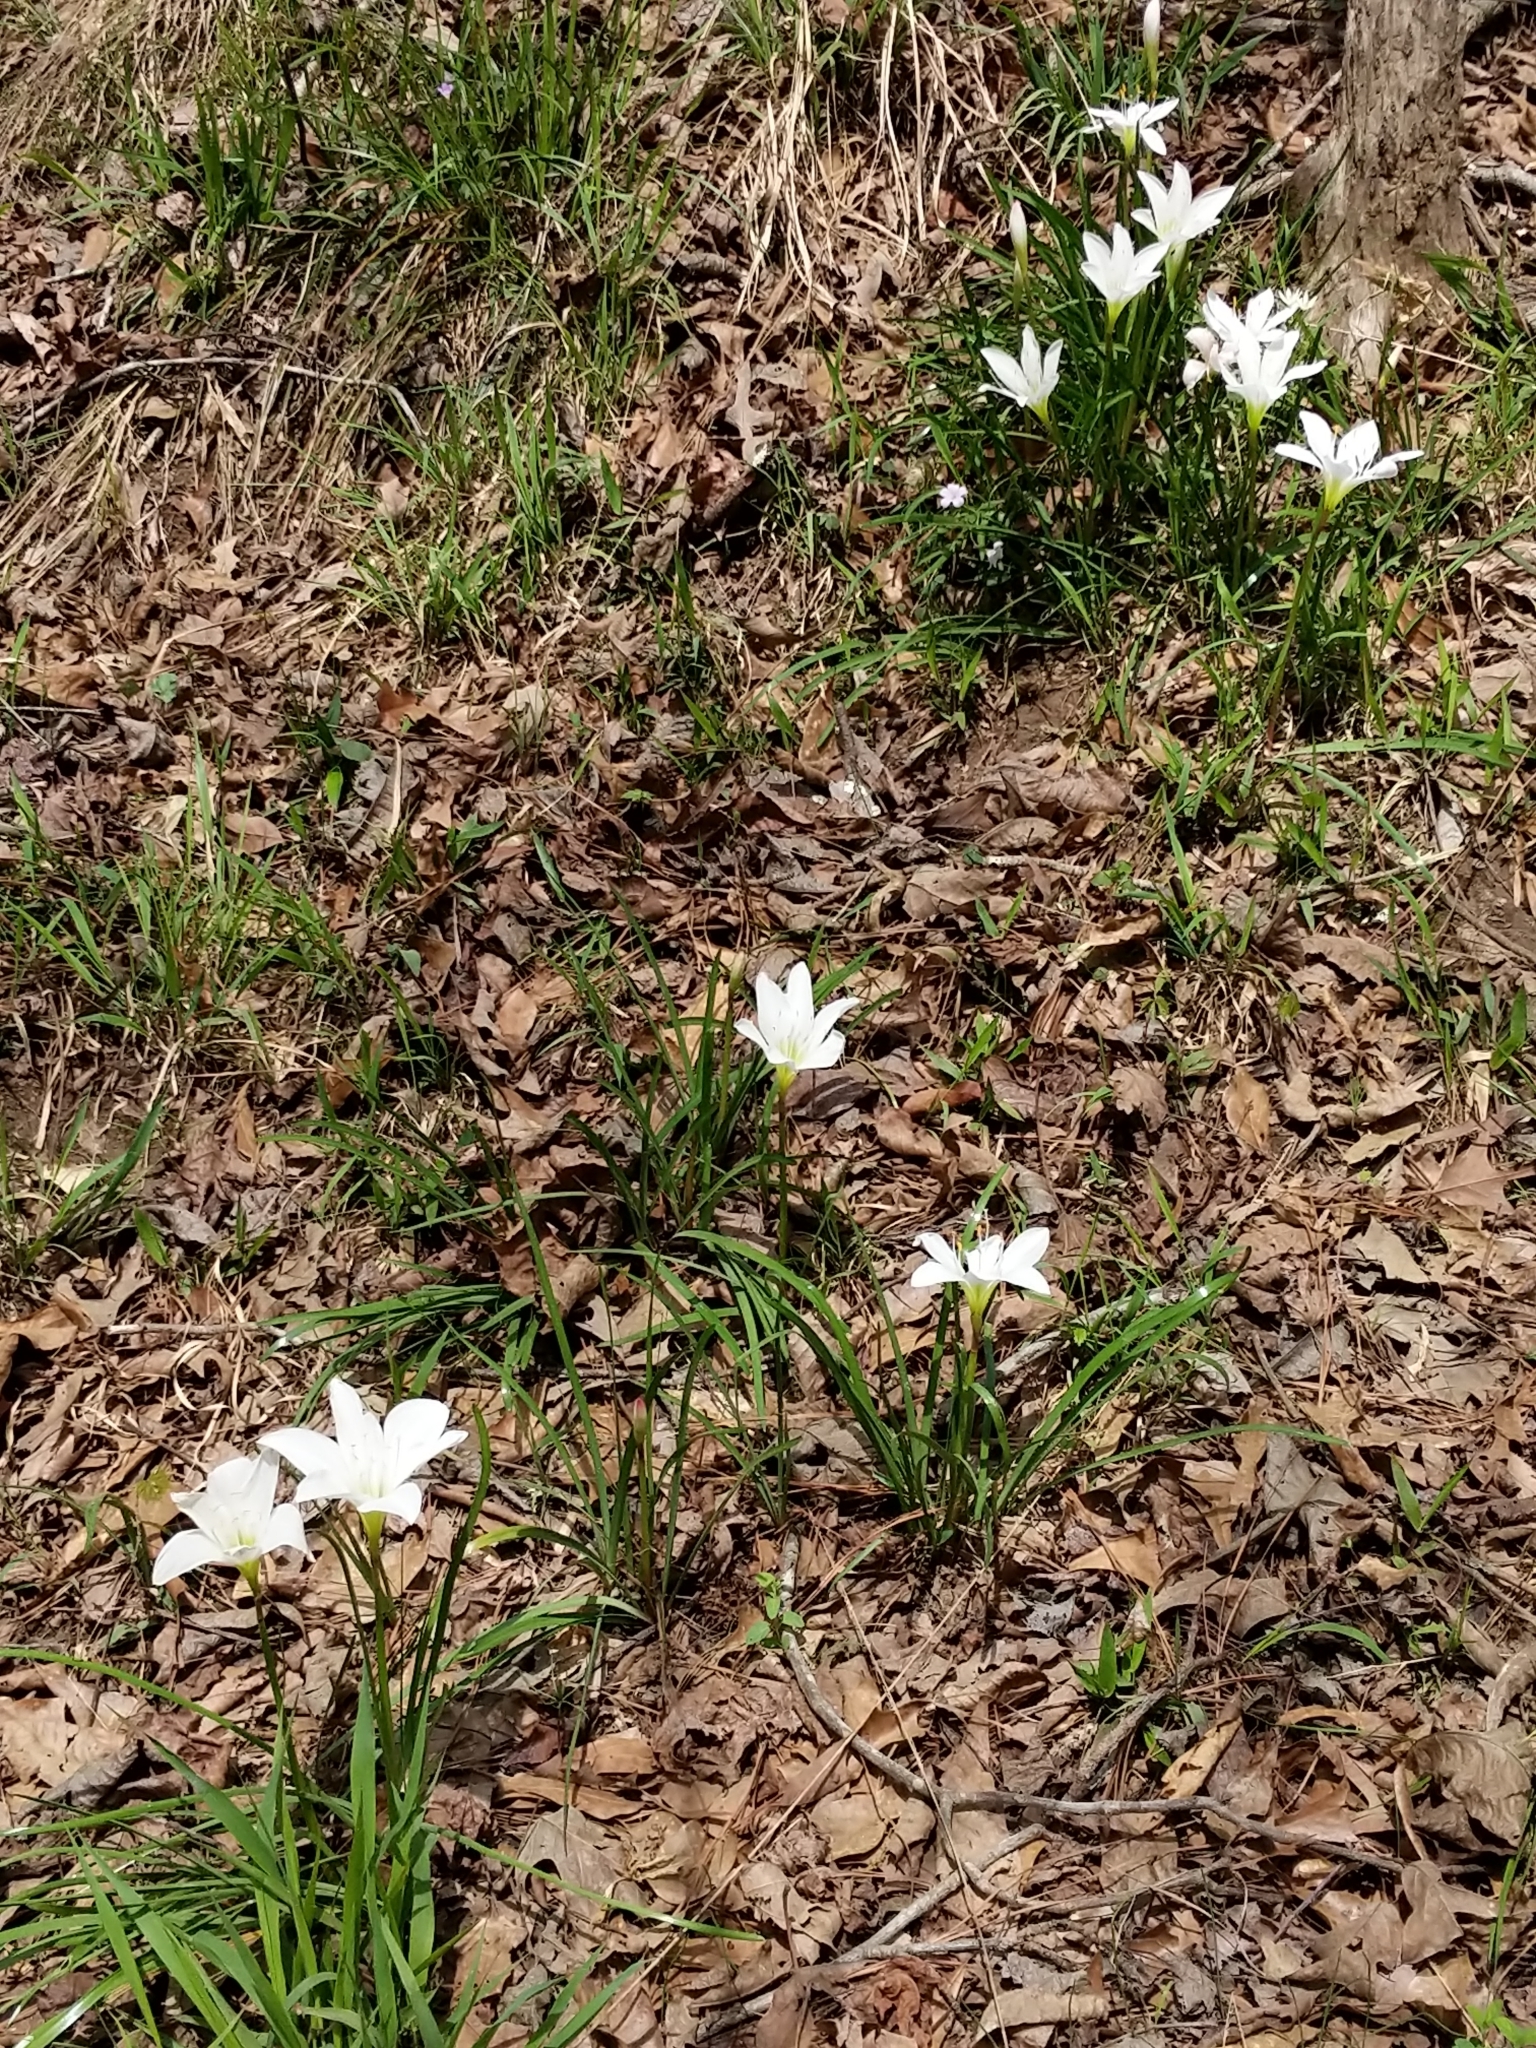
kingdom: Plantae
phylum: Tracheophyta
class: Liliopsida
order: Asparagales
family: Amaryllidaceae
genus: Zephyranthes
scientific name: Zephyranthes atamasco
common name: Atamasco lily
